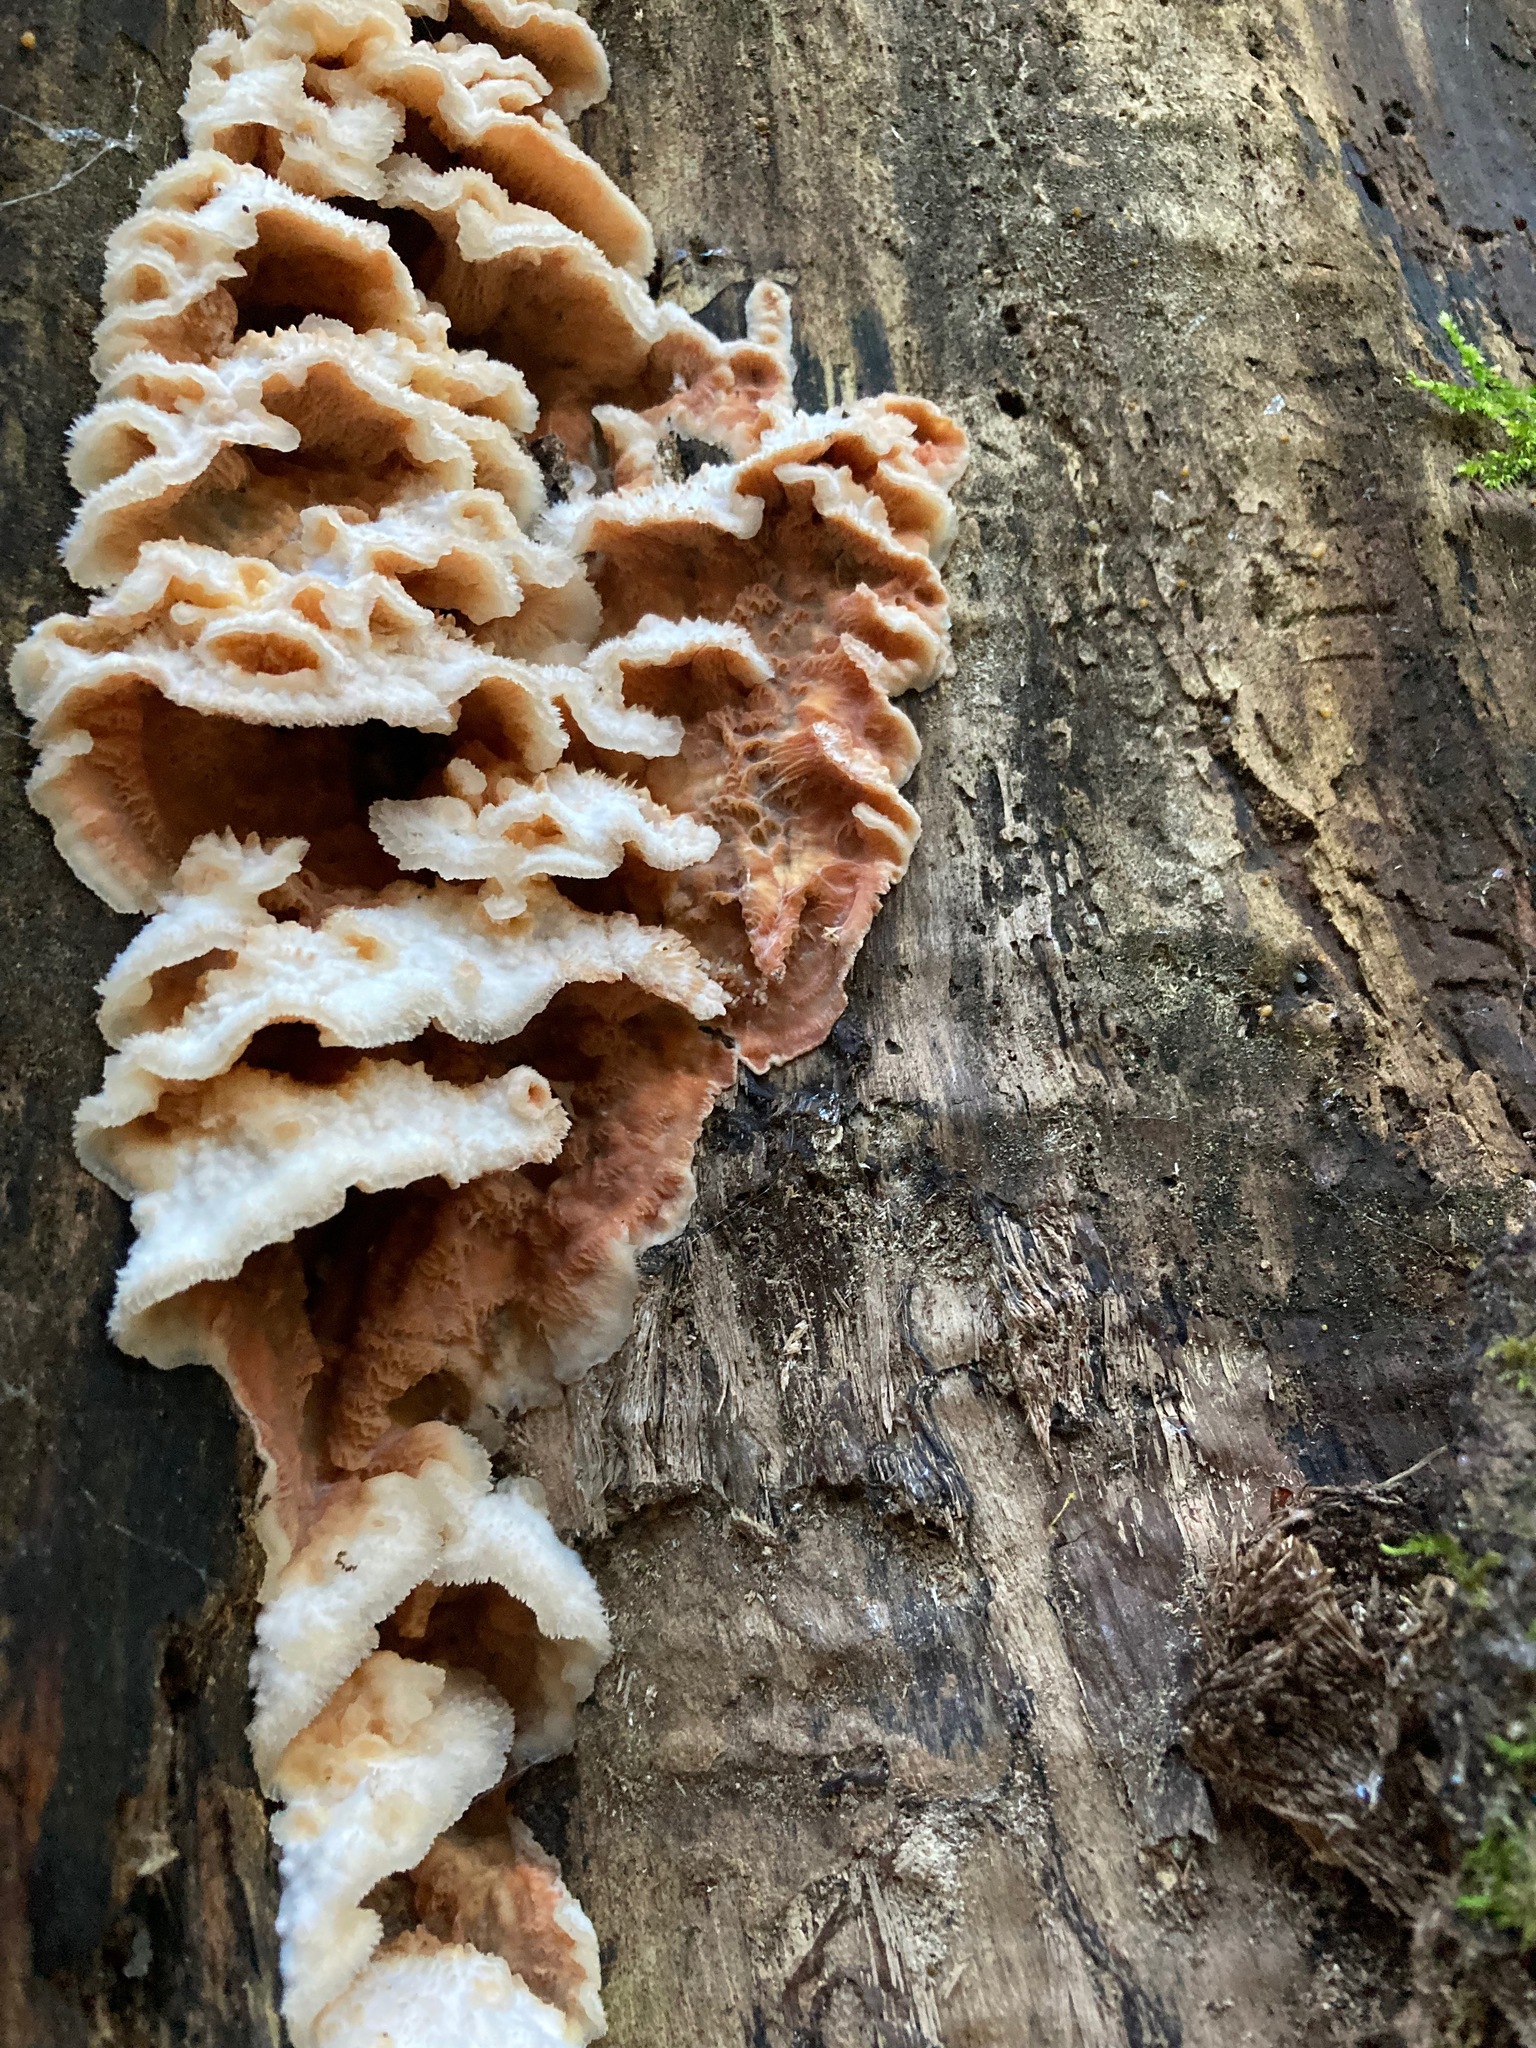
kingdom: Fungi
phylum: Basidiomycota
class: Agaricomycetes
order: Polyporales
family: Meruliaceae
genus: Phlebia
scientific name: Phlebia tremellosa
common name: Jelly rot
